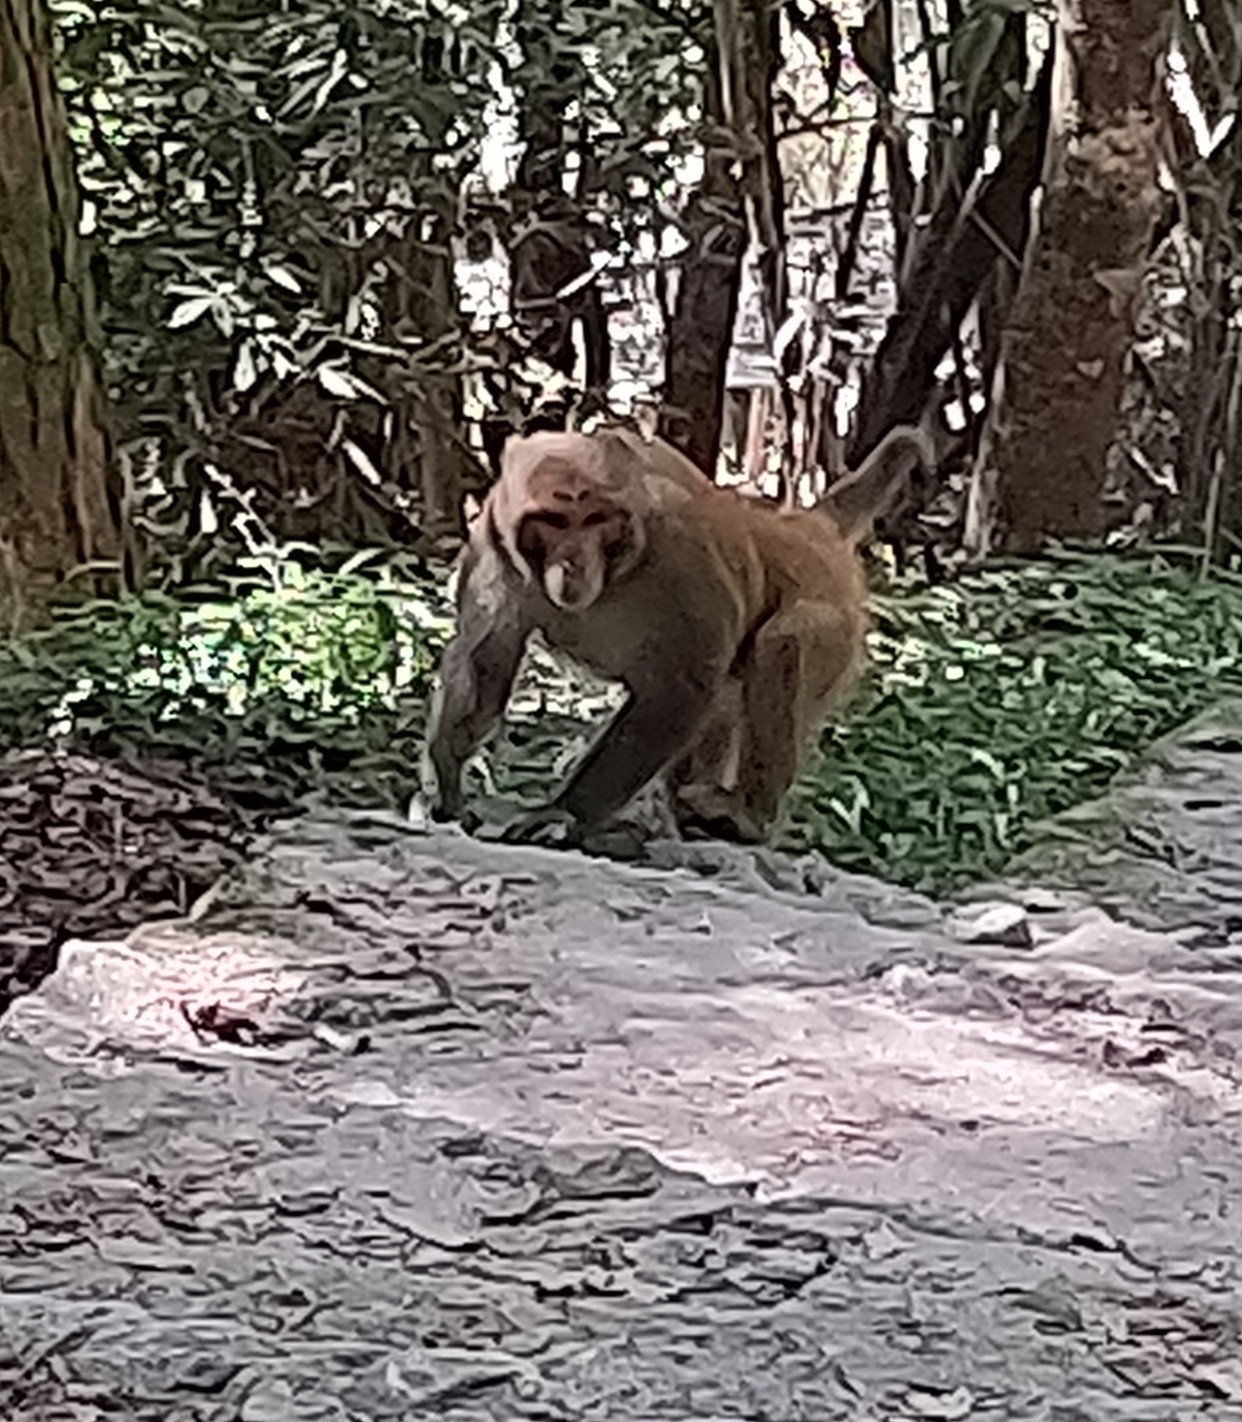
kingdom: Animalia
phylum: Chordata
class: Mammalia
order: Primates
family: Cercopithecidae
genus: Macaca
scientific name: Macaca mulatta
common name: Rhesus monkey
